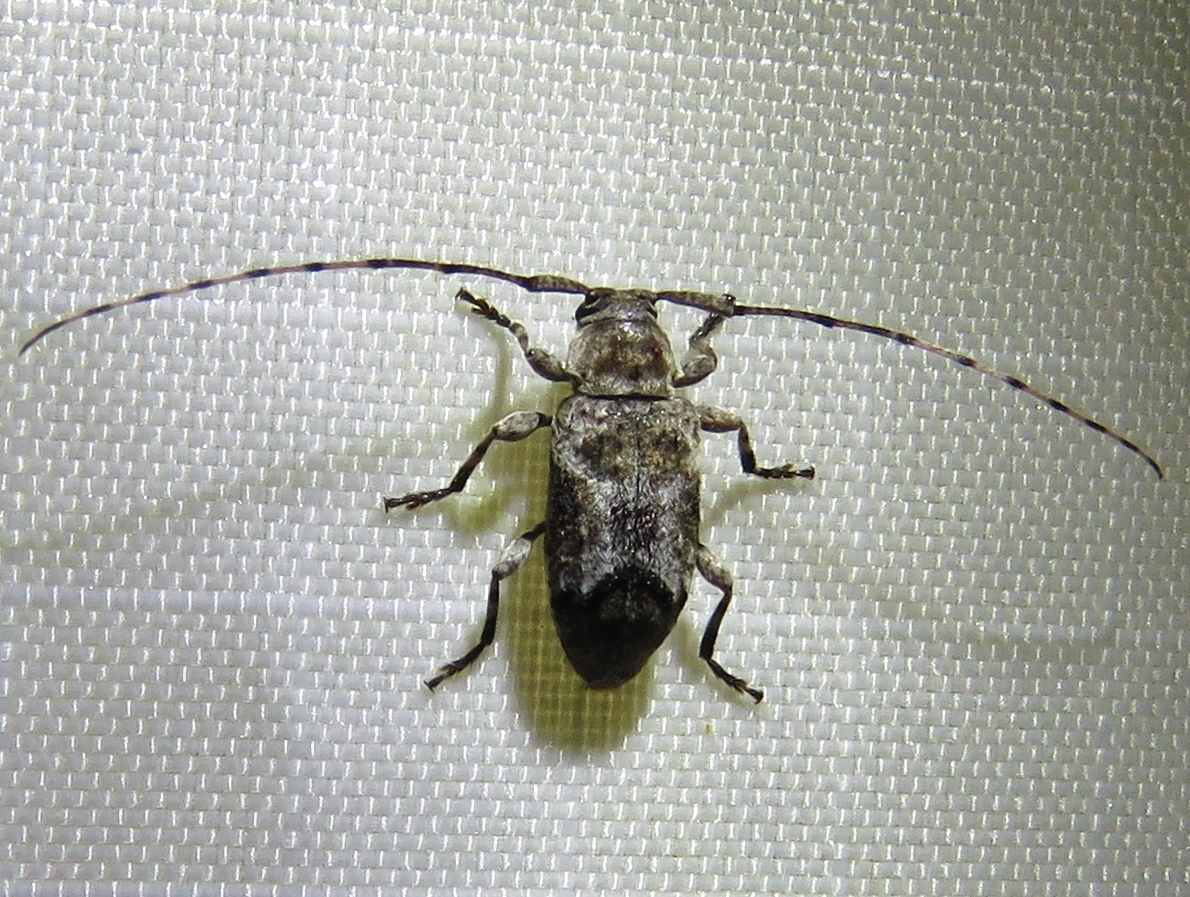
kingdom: Animalia
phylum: Arthropoda
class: Insecta
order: Coleoptera
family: Cerambycidae
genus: Sternidius
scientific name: Sternidius mimeticus
